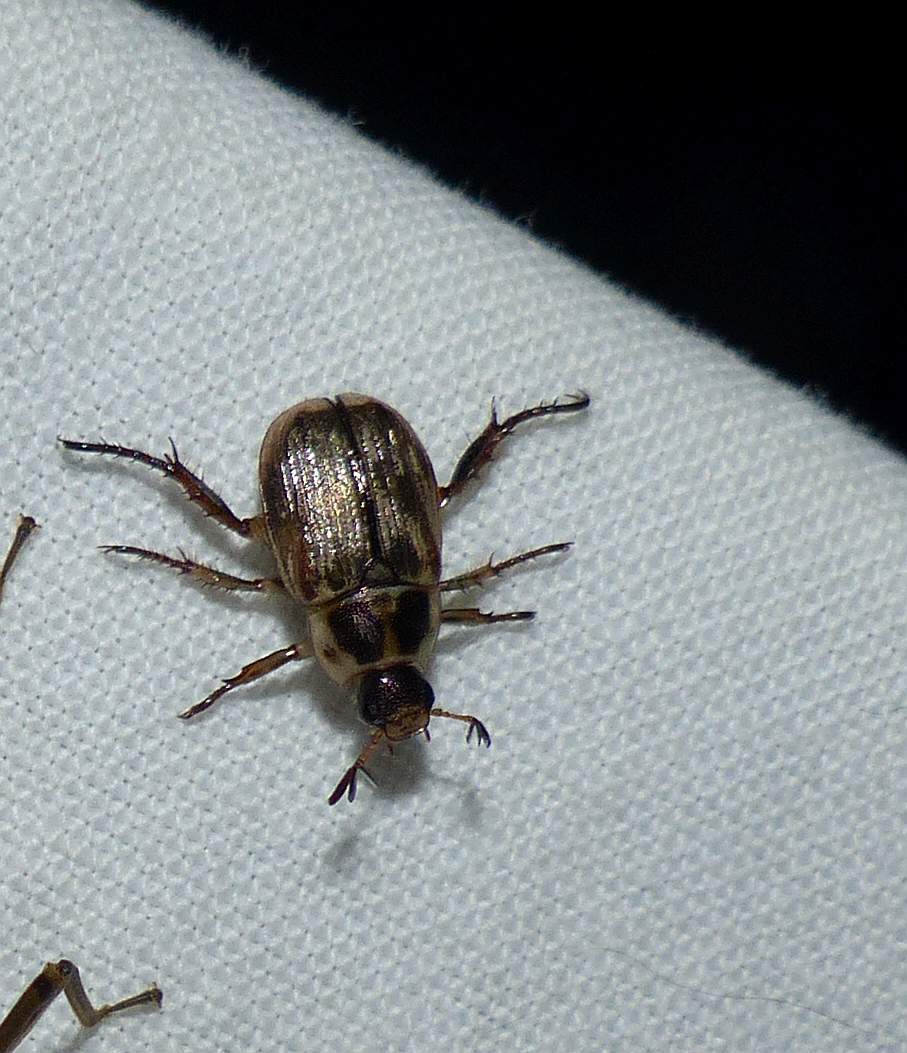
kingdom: Animalia
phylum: Arthropoda
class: Insecta
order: Coleoptera
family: Scarabaeidae
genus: Exomala
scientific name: Exomala orientalis
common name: Oriental beetle
